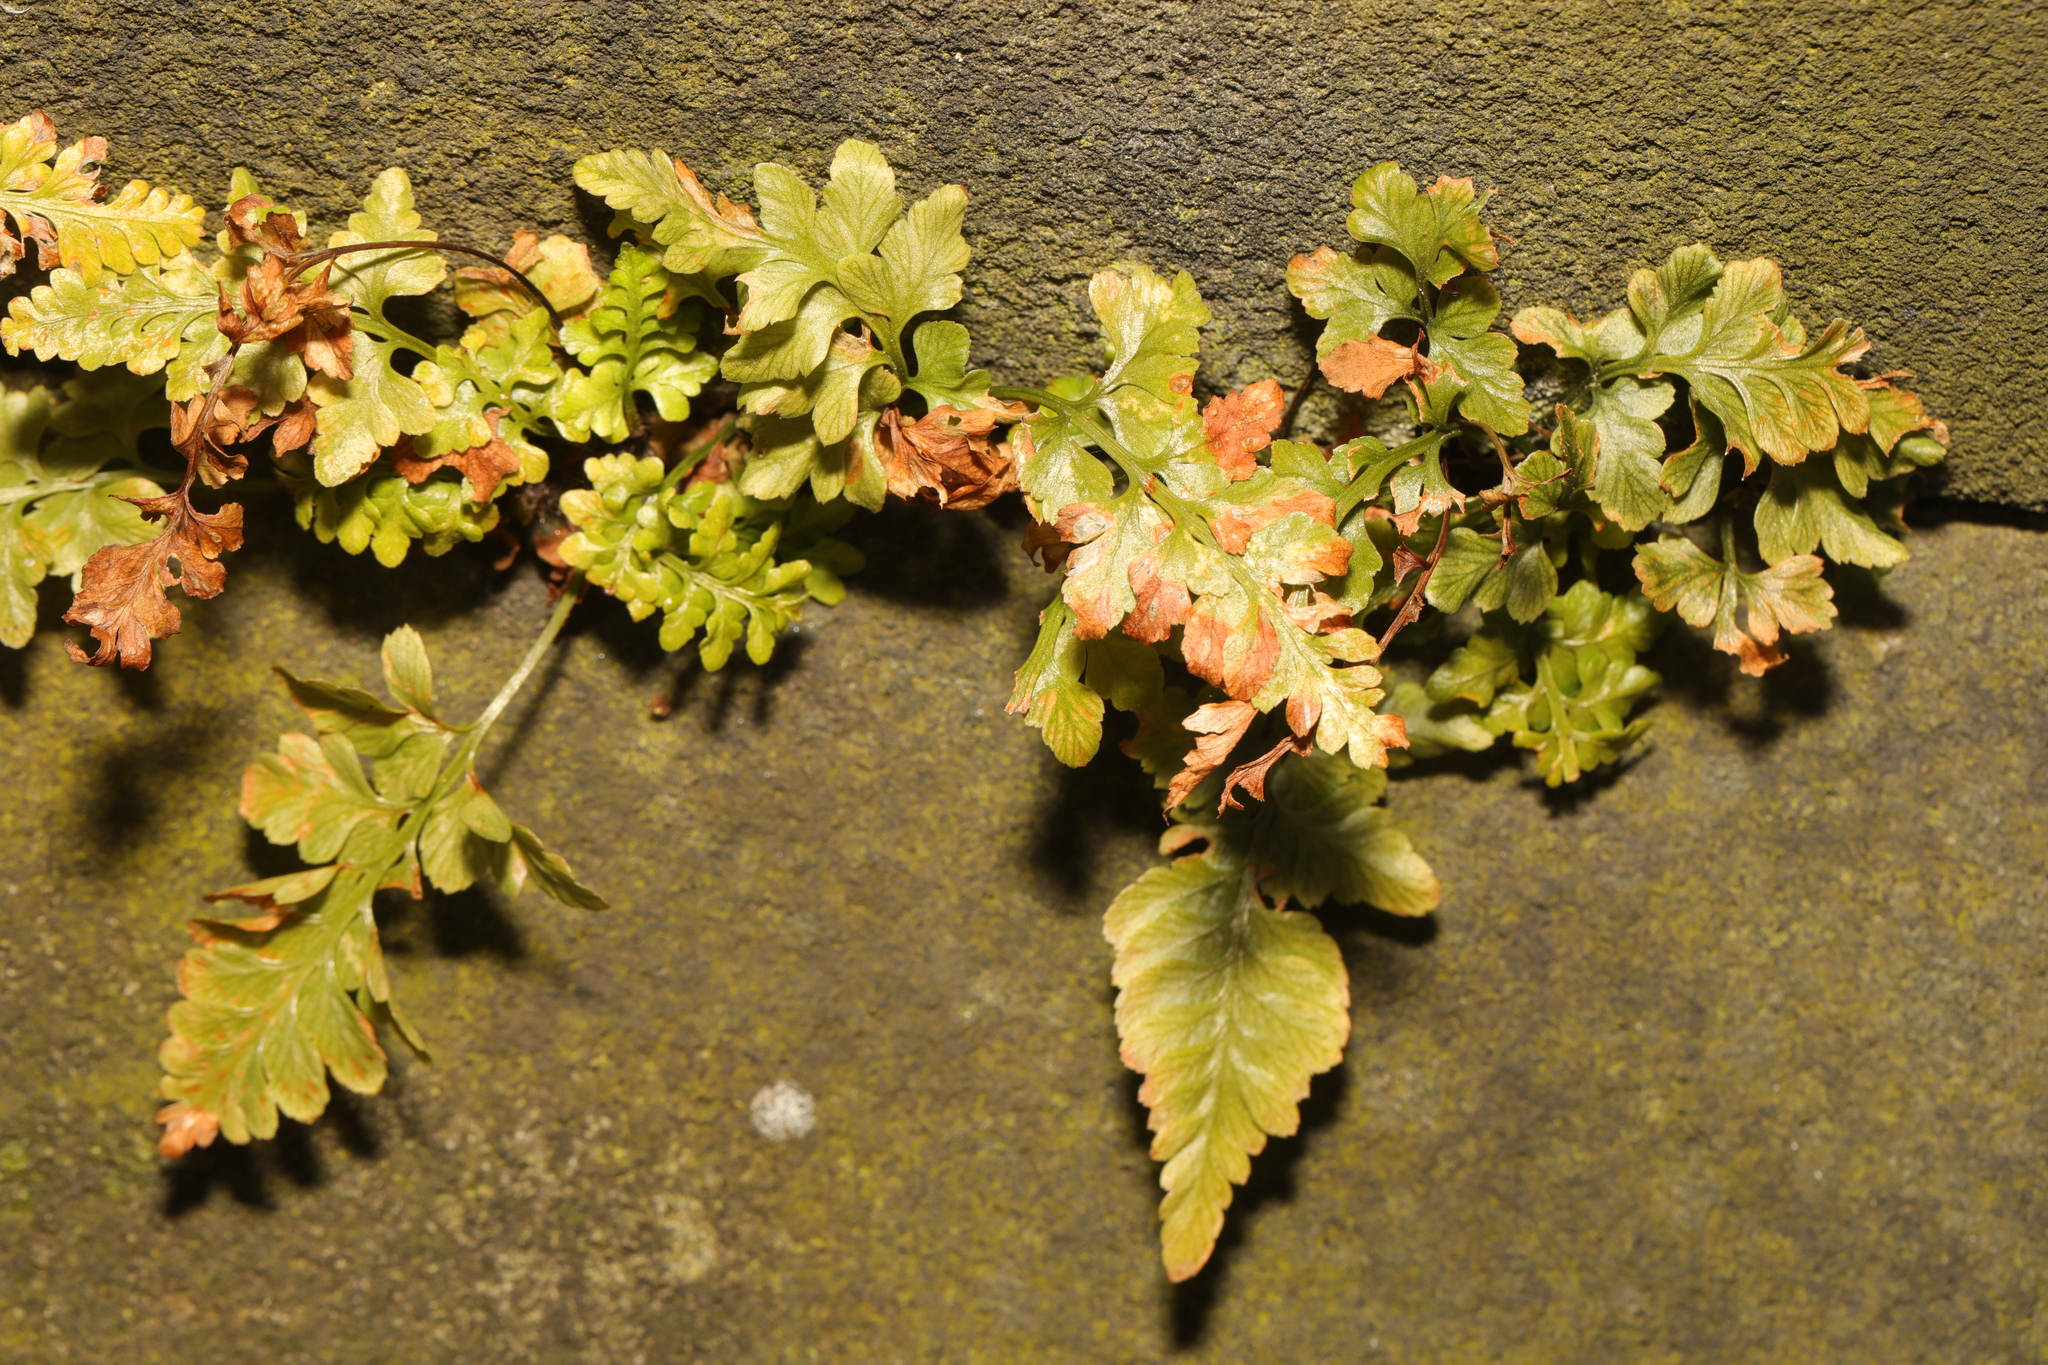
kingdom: Plantae
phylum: Tracheophyta
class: Polypodiopsida
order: Polypodiales
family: Aspleniaceae
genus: Asplenium
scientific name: Asplenium adiantum-nigrum
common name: Black spleenwort
